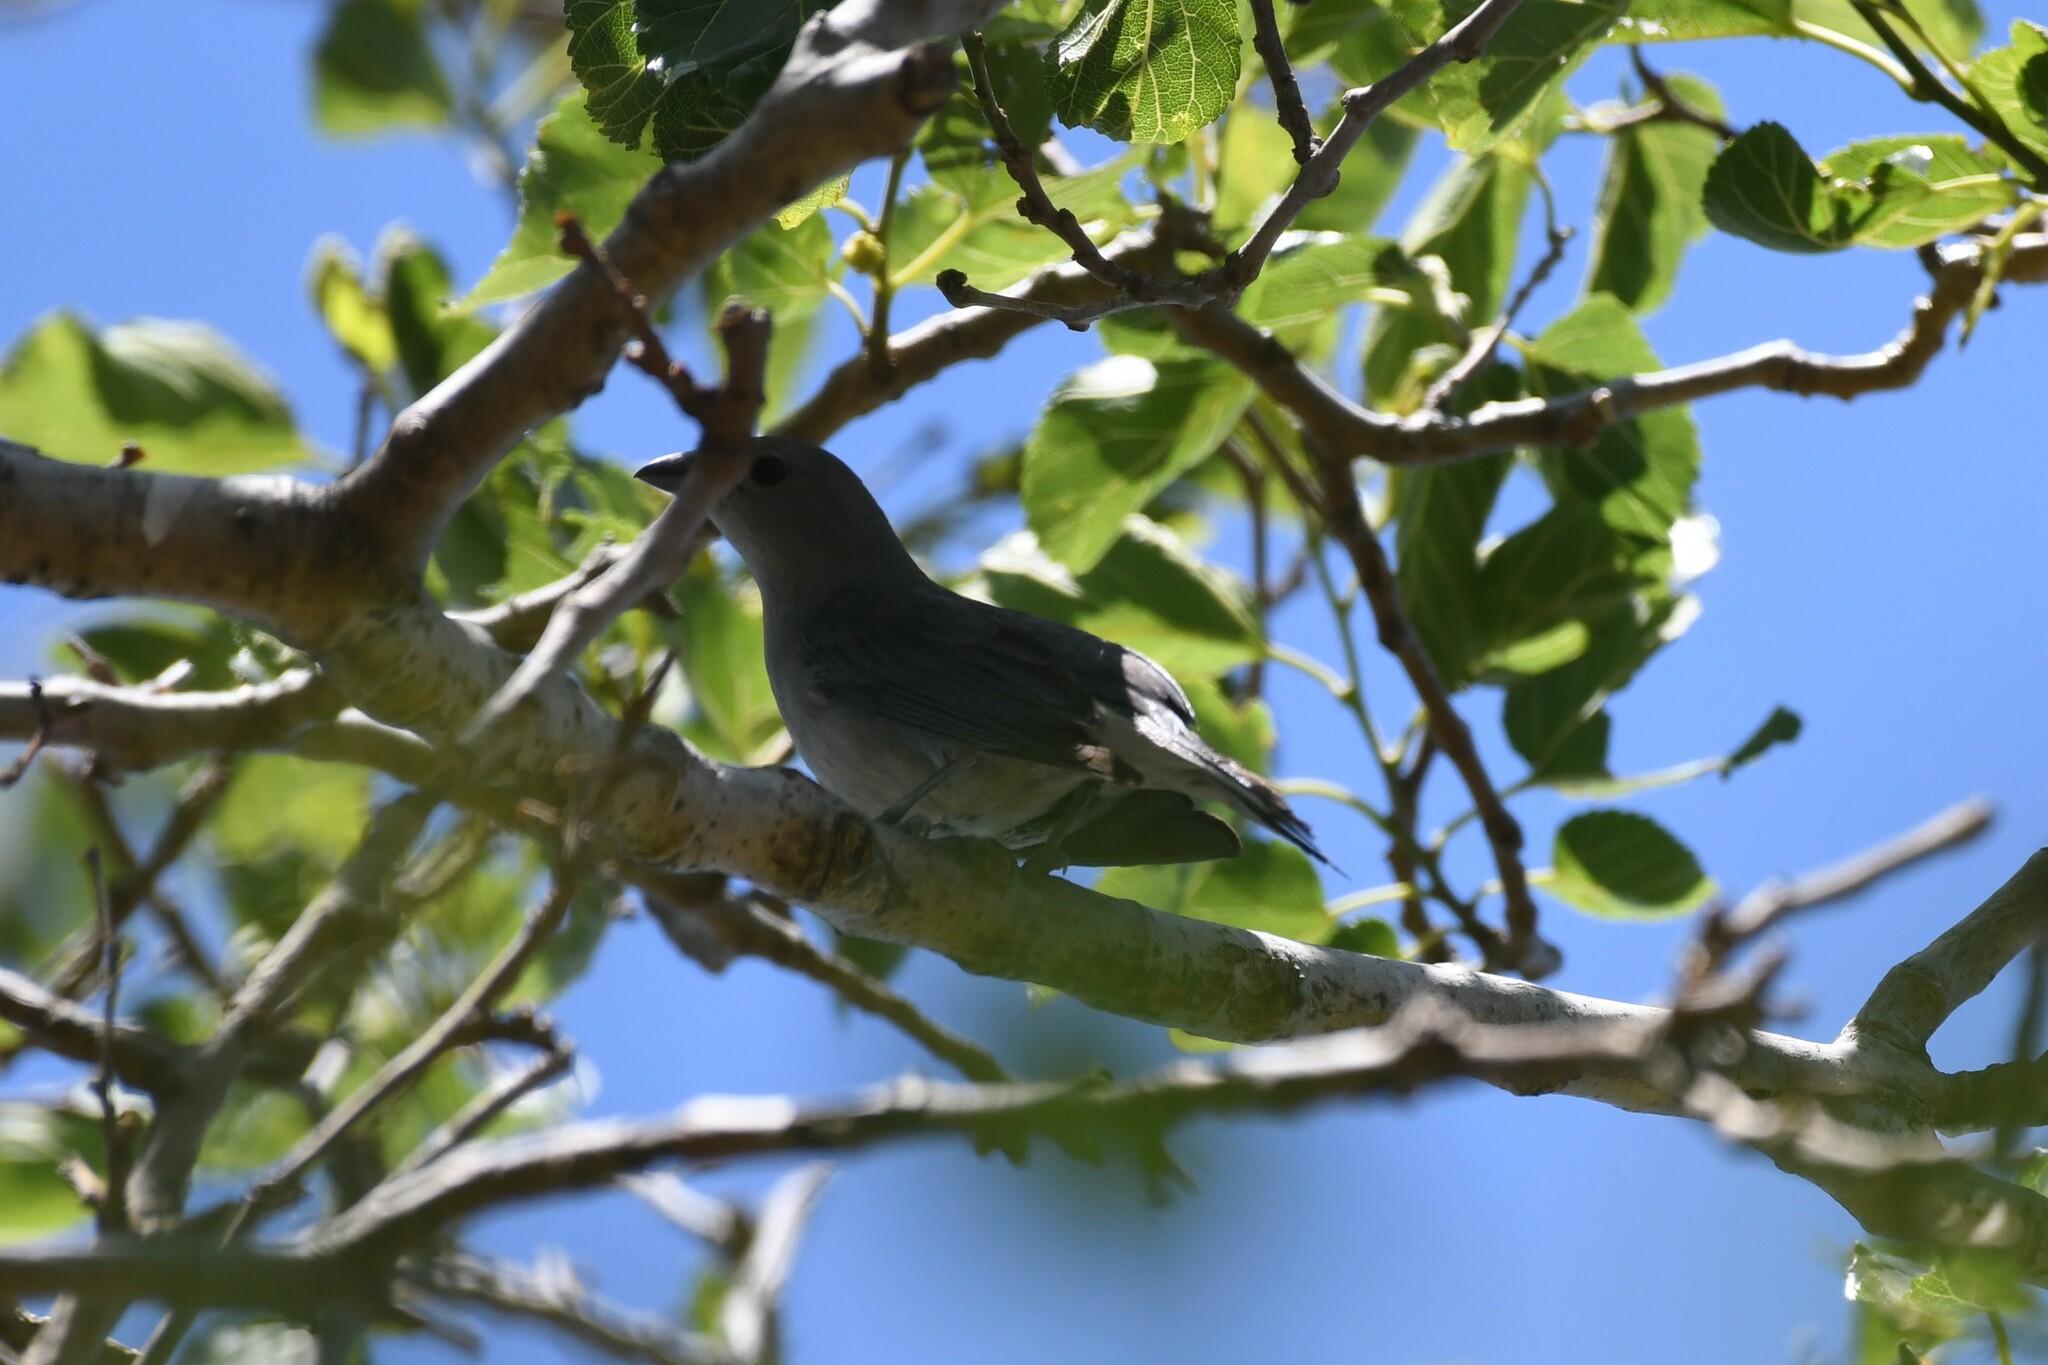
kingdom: Animalia
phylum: Chordata
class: Aves
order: Passeriformes
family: Thraupidae
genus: Thraupis
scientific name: Thraupis sayaca
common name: Sayaca tanager
